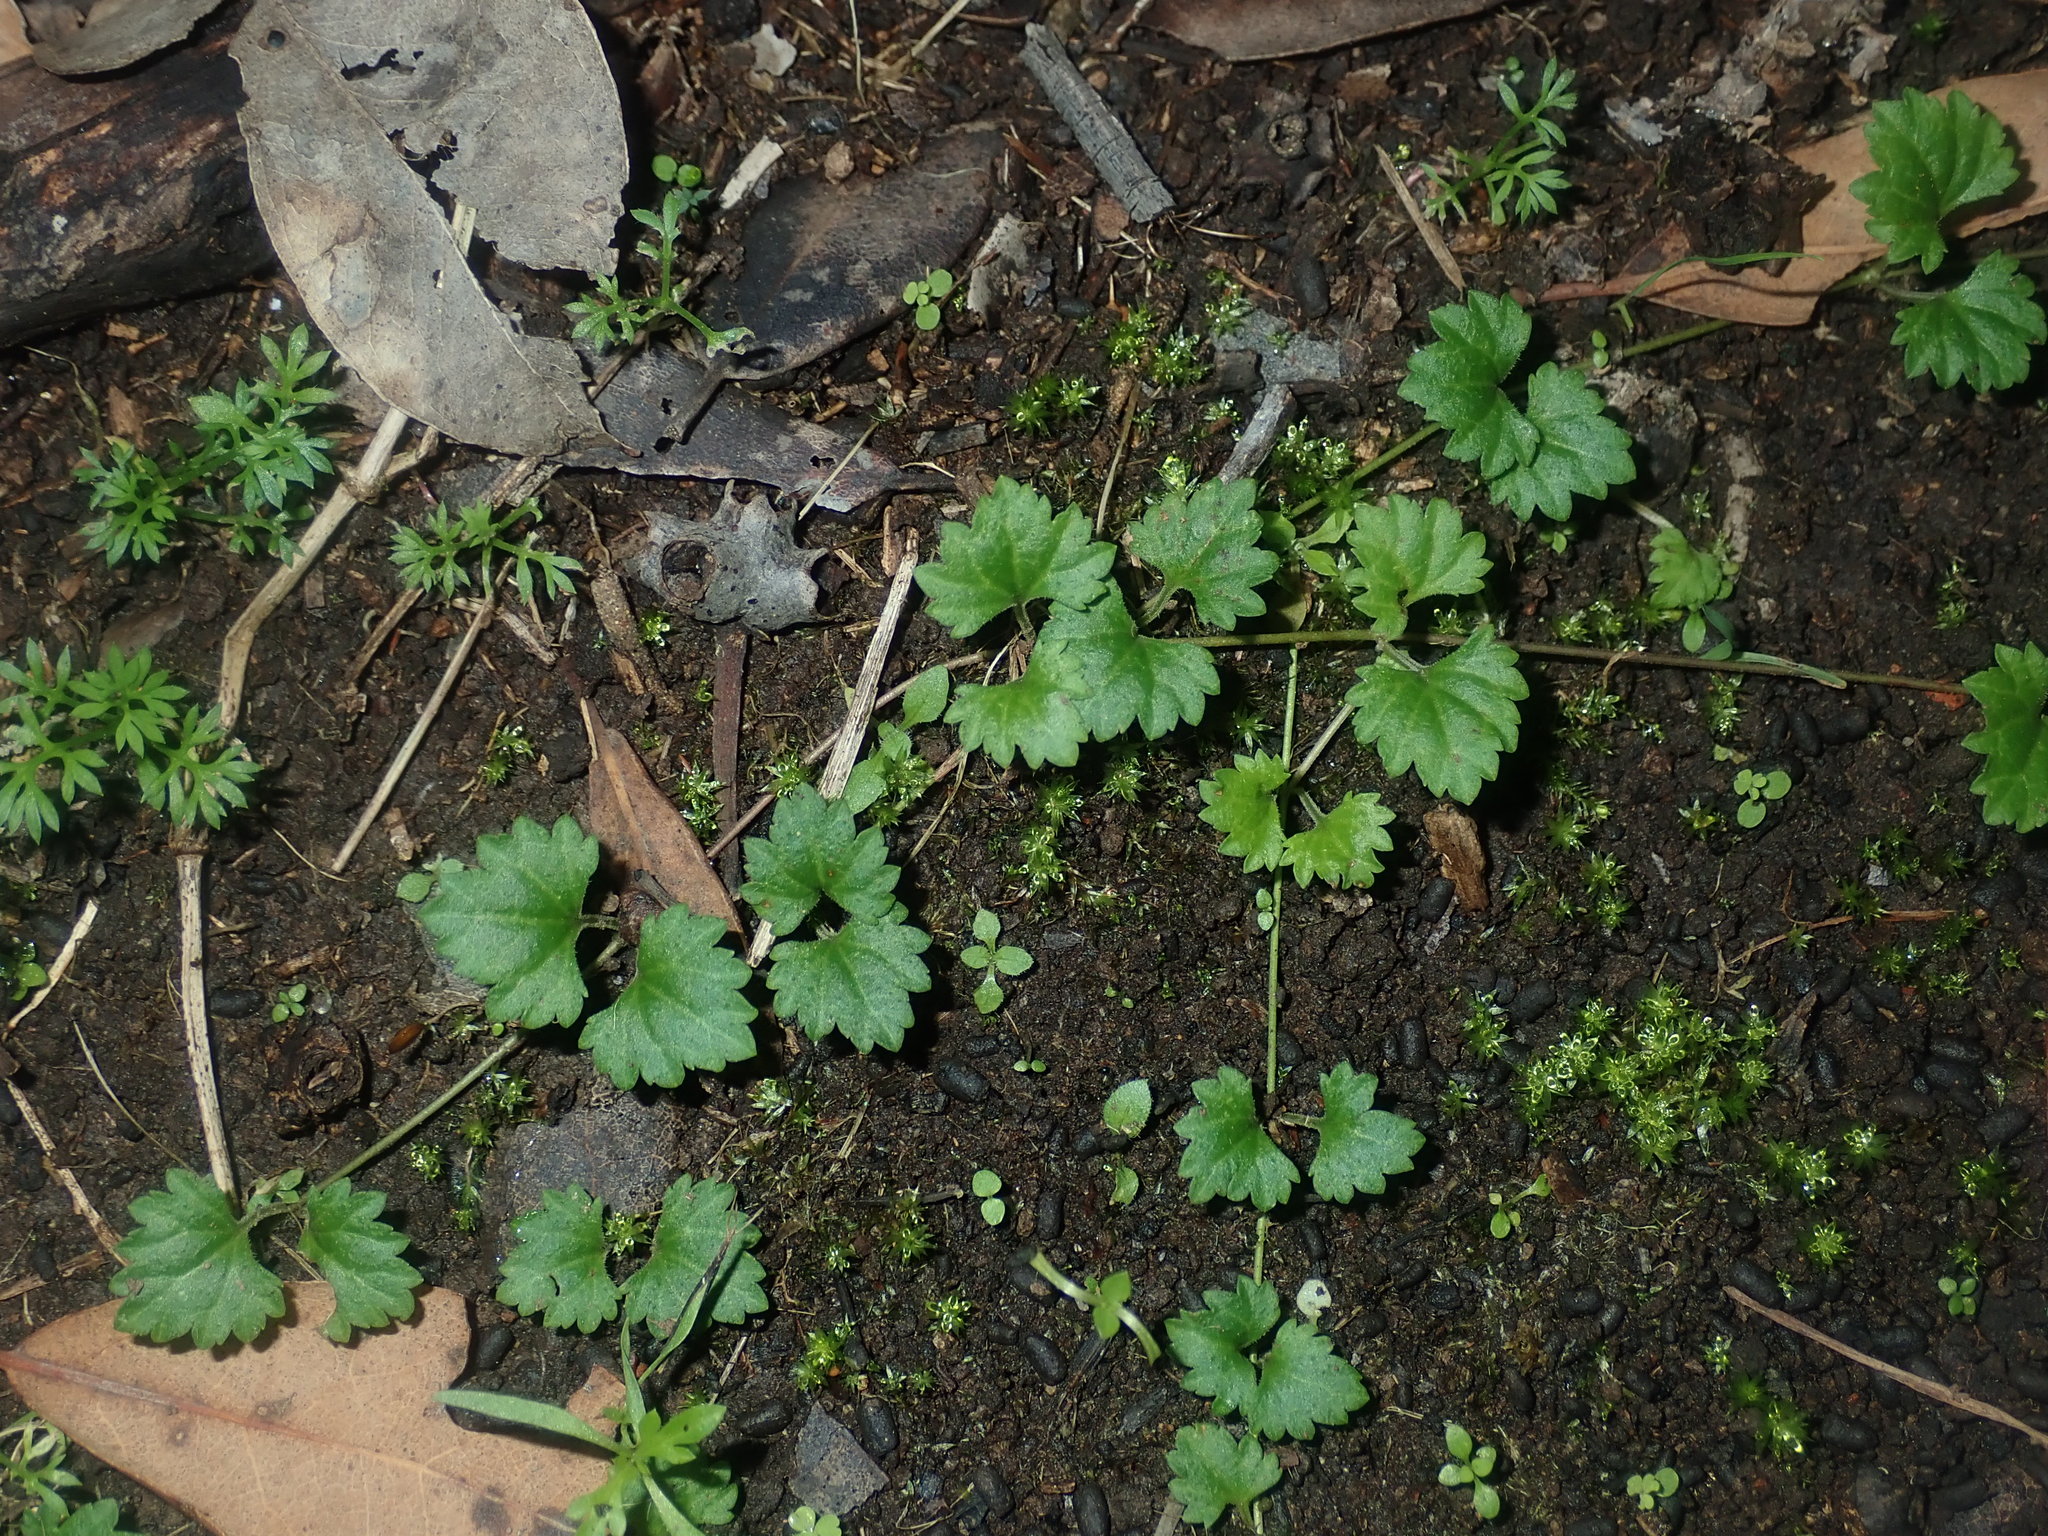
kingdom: Plantae
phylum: Tracheophyta
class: Magnoliopsida
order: Lamiales
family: Plantaginaceae
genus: Veronica
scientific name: Veronica plebeia
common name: Speedwell
